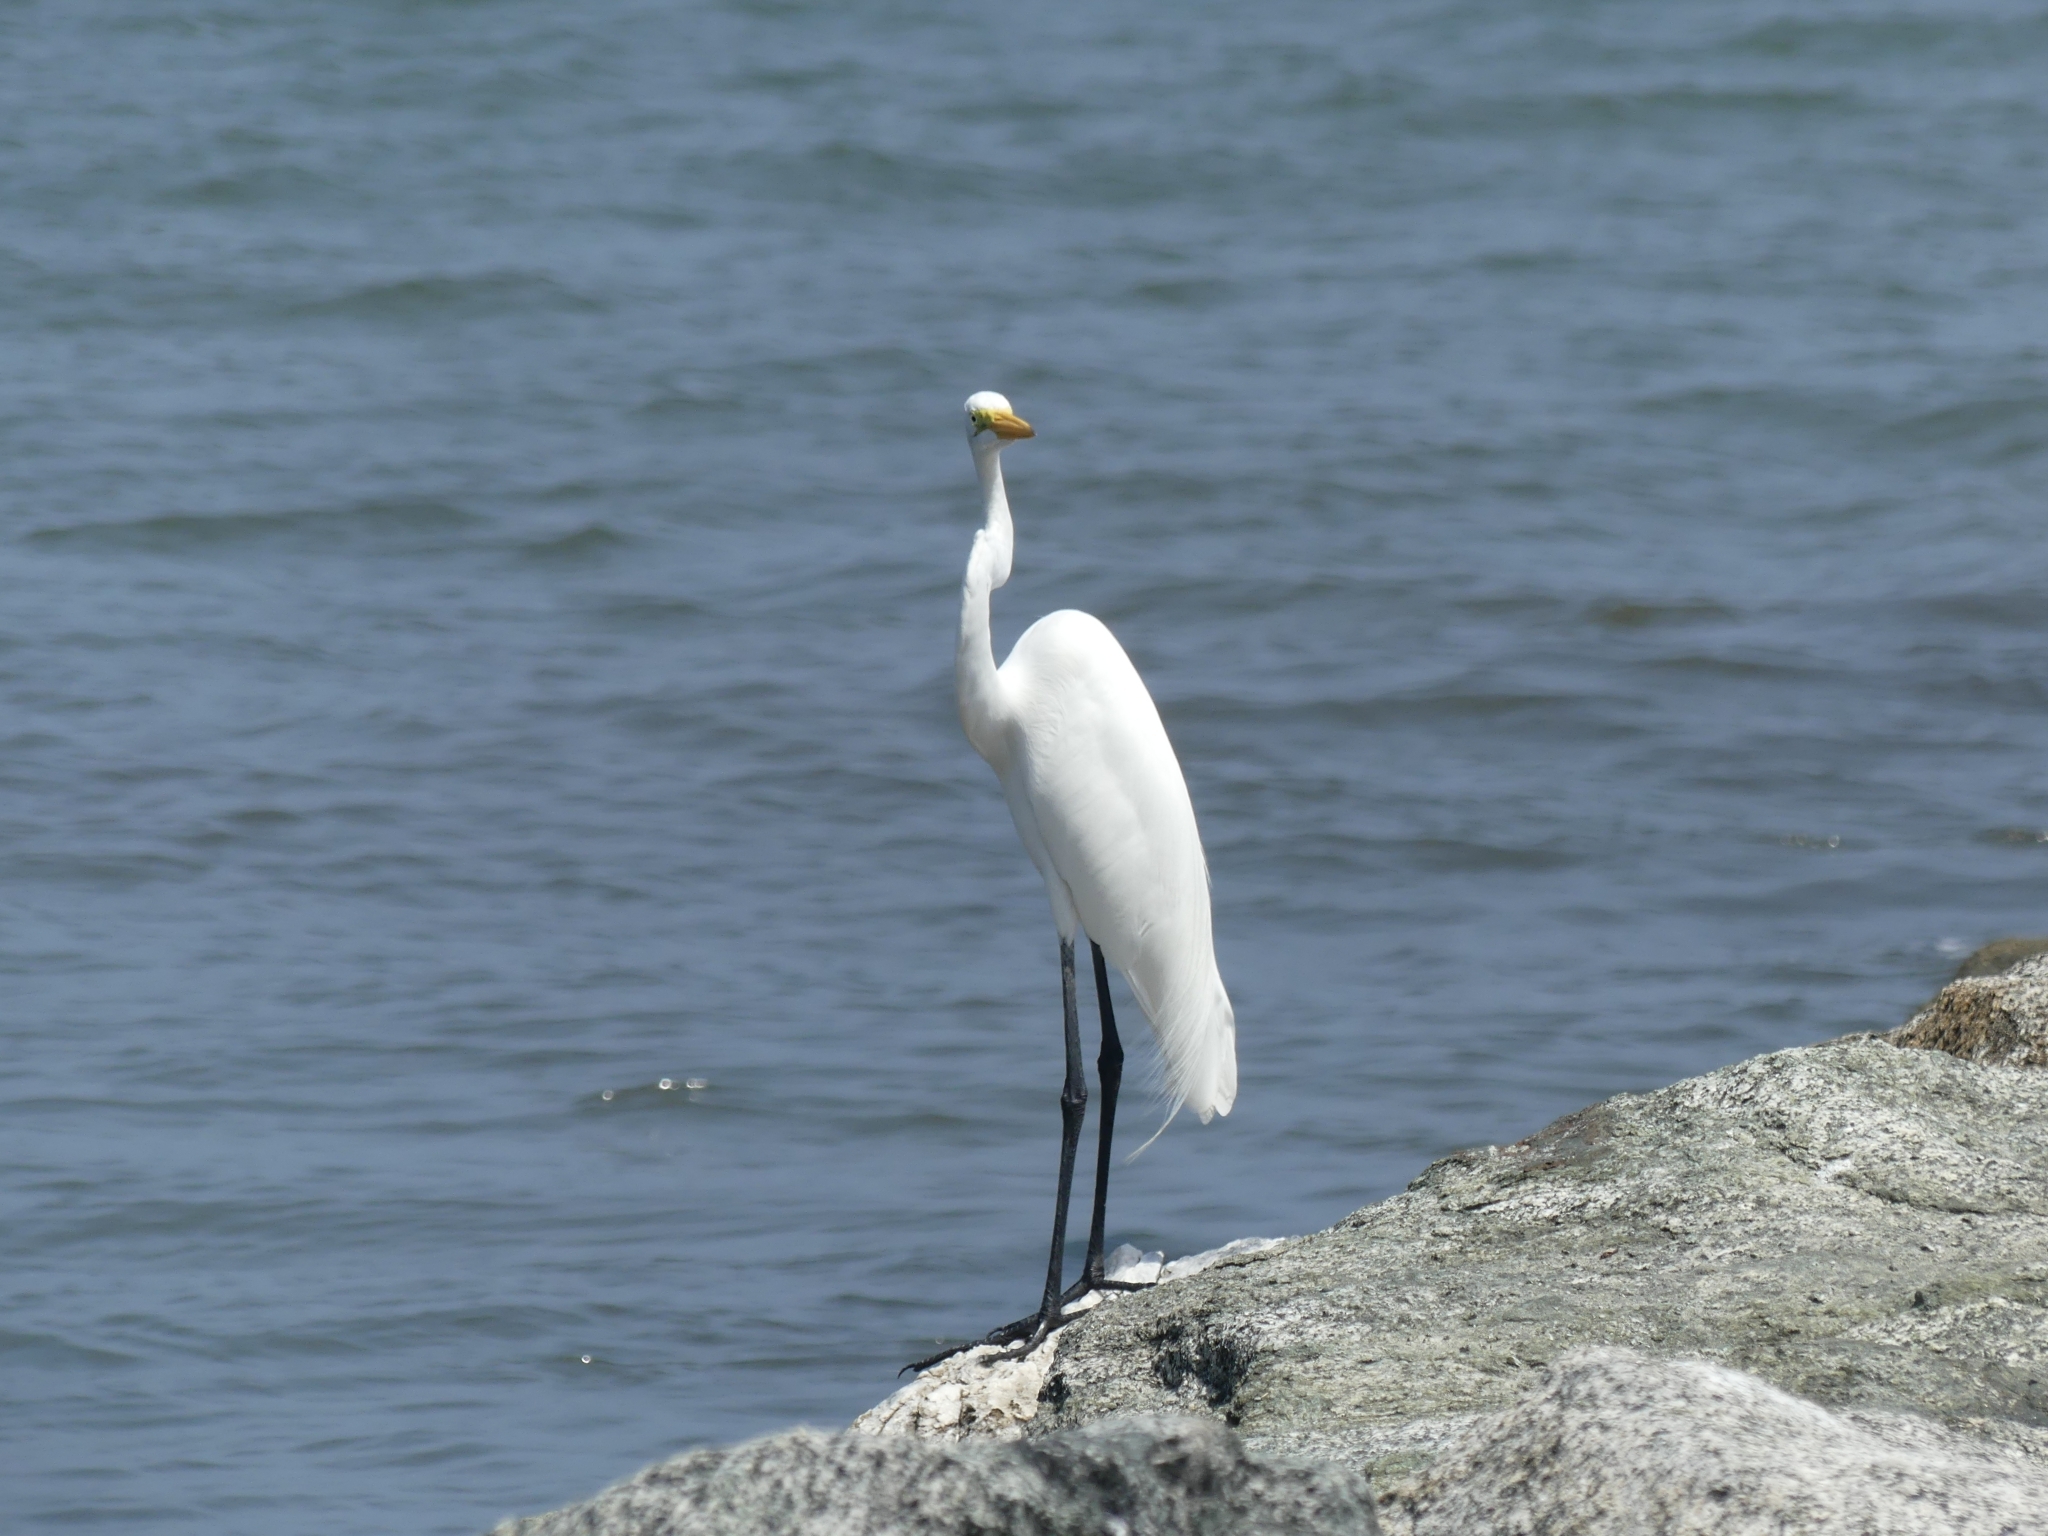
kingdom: Animalia
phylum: Chordata
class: Aves
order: Pelecaniformes
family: Ardeidae
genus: Ardea
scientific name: Ardea alba
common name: Great egret
